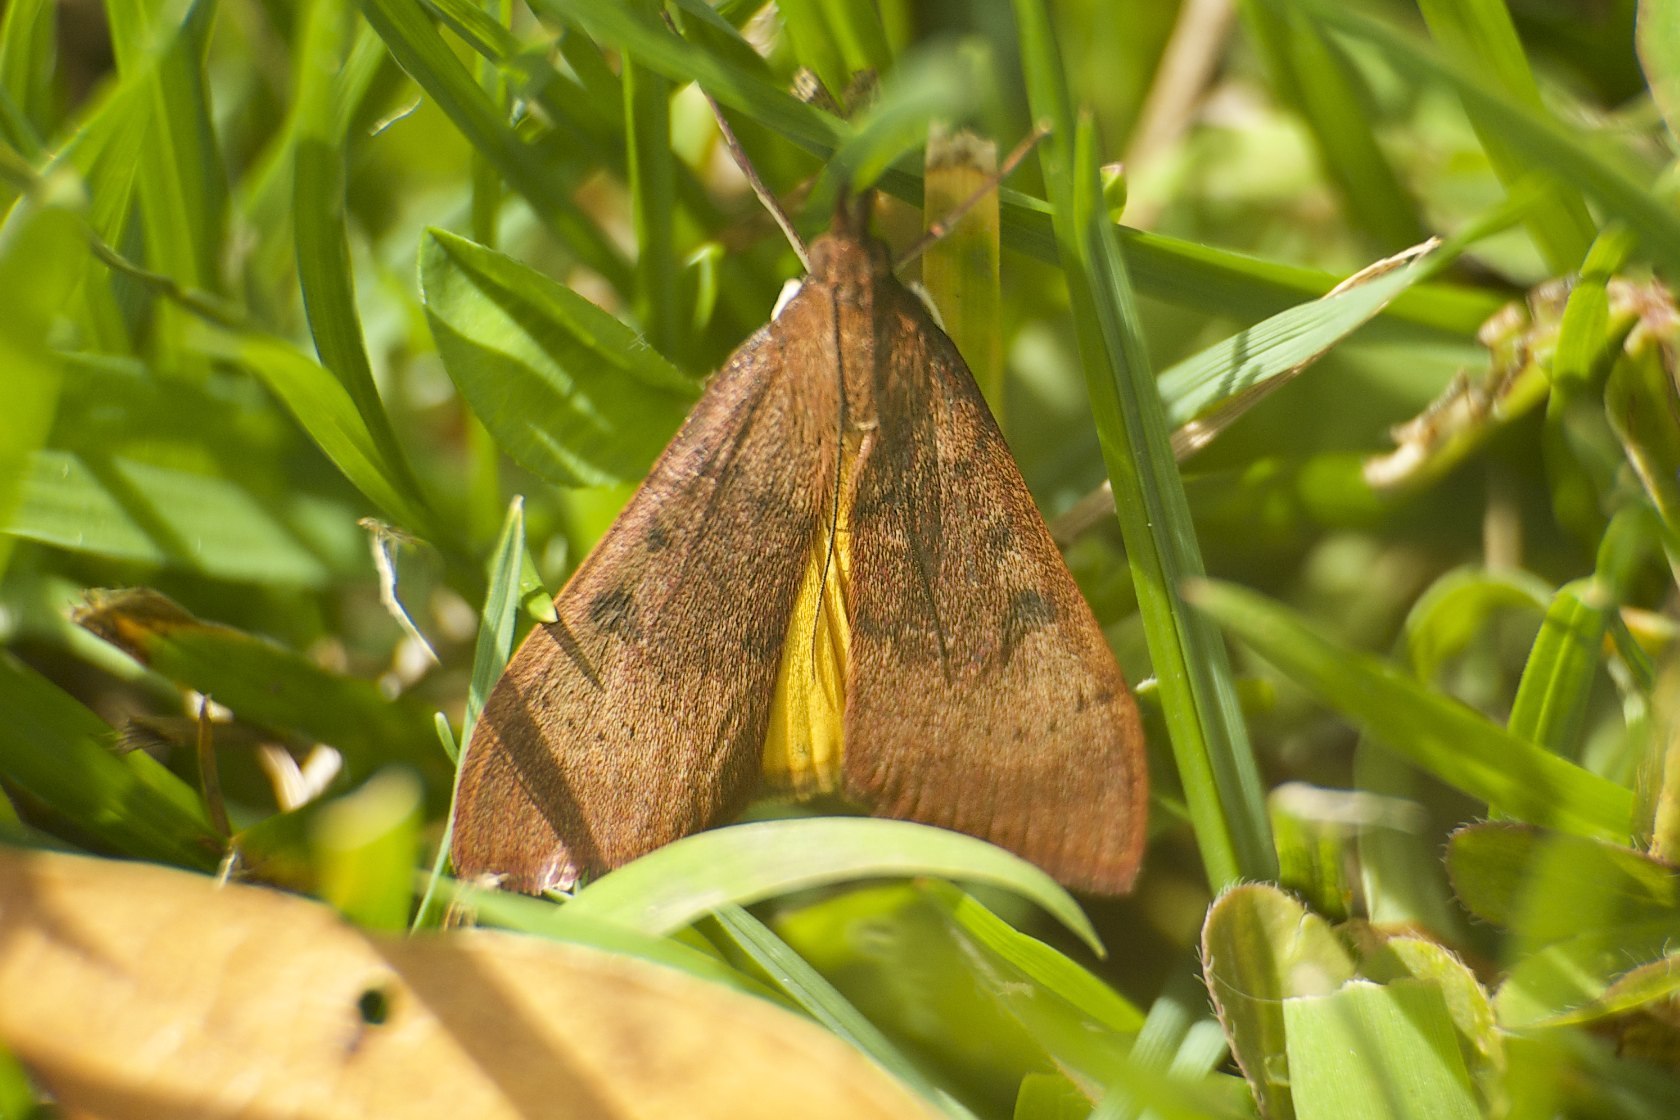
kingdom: Animalia
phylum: Arthropoda
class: Insecta
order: Lepidoptera
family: Crambidae
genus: Uresiphita
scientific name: Uresiphita reversalis
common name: Genista broom moth
